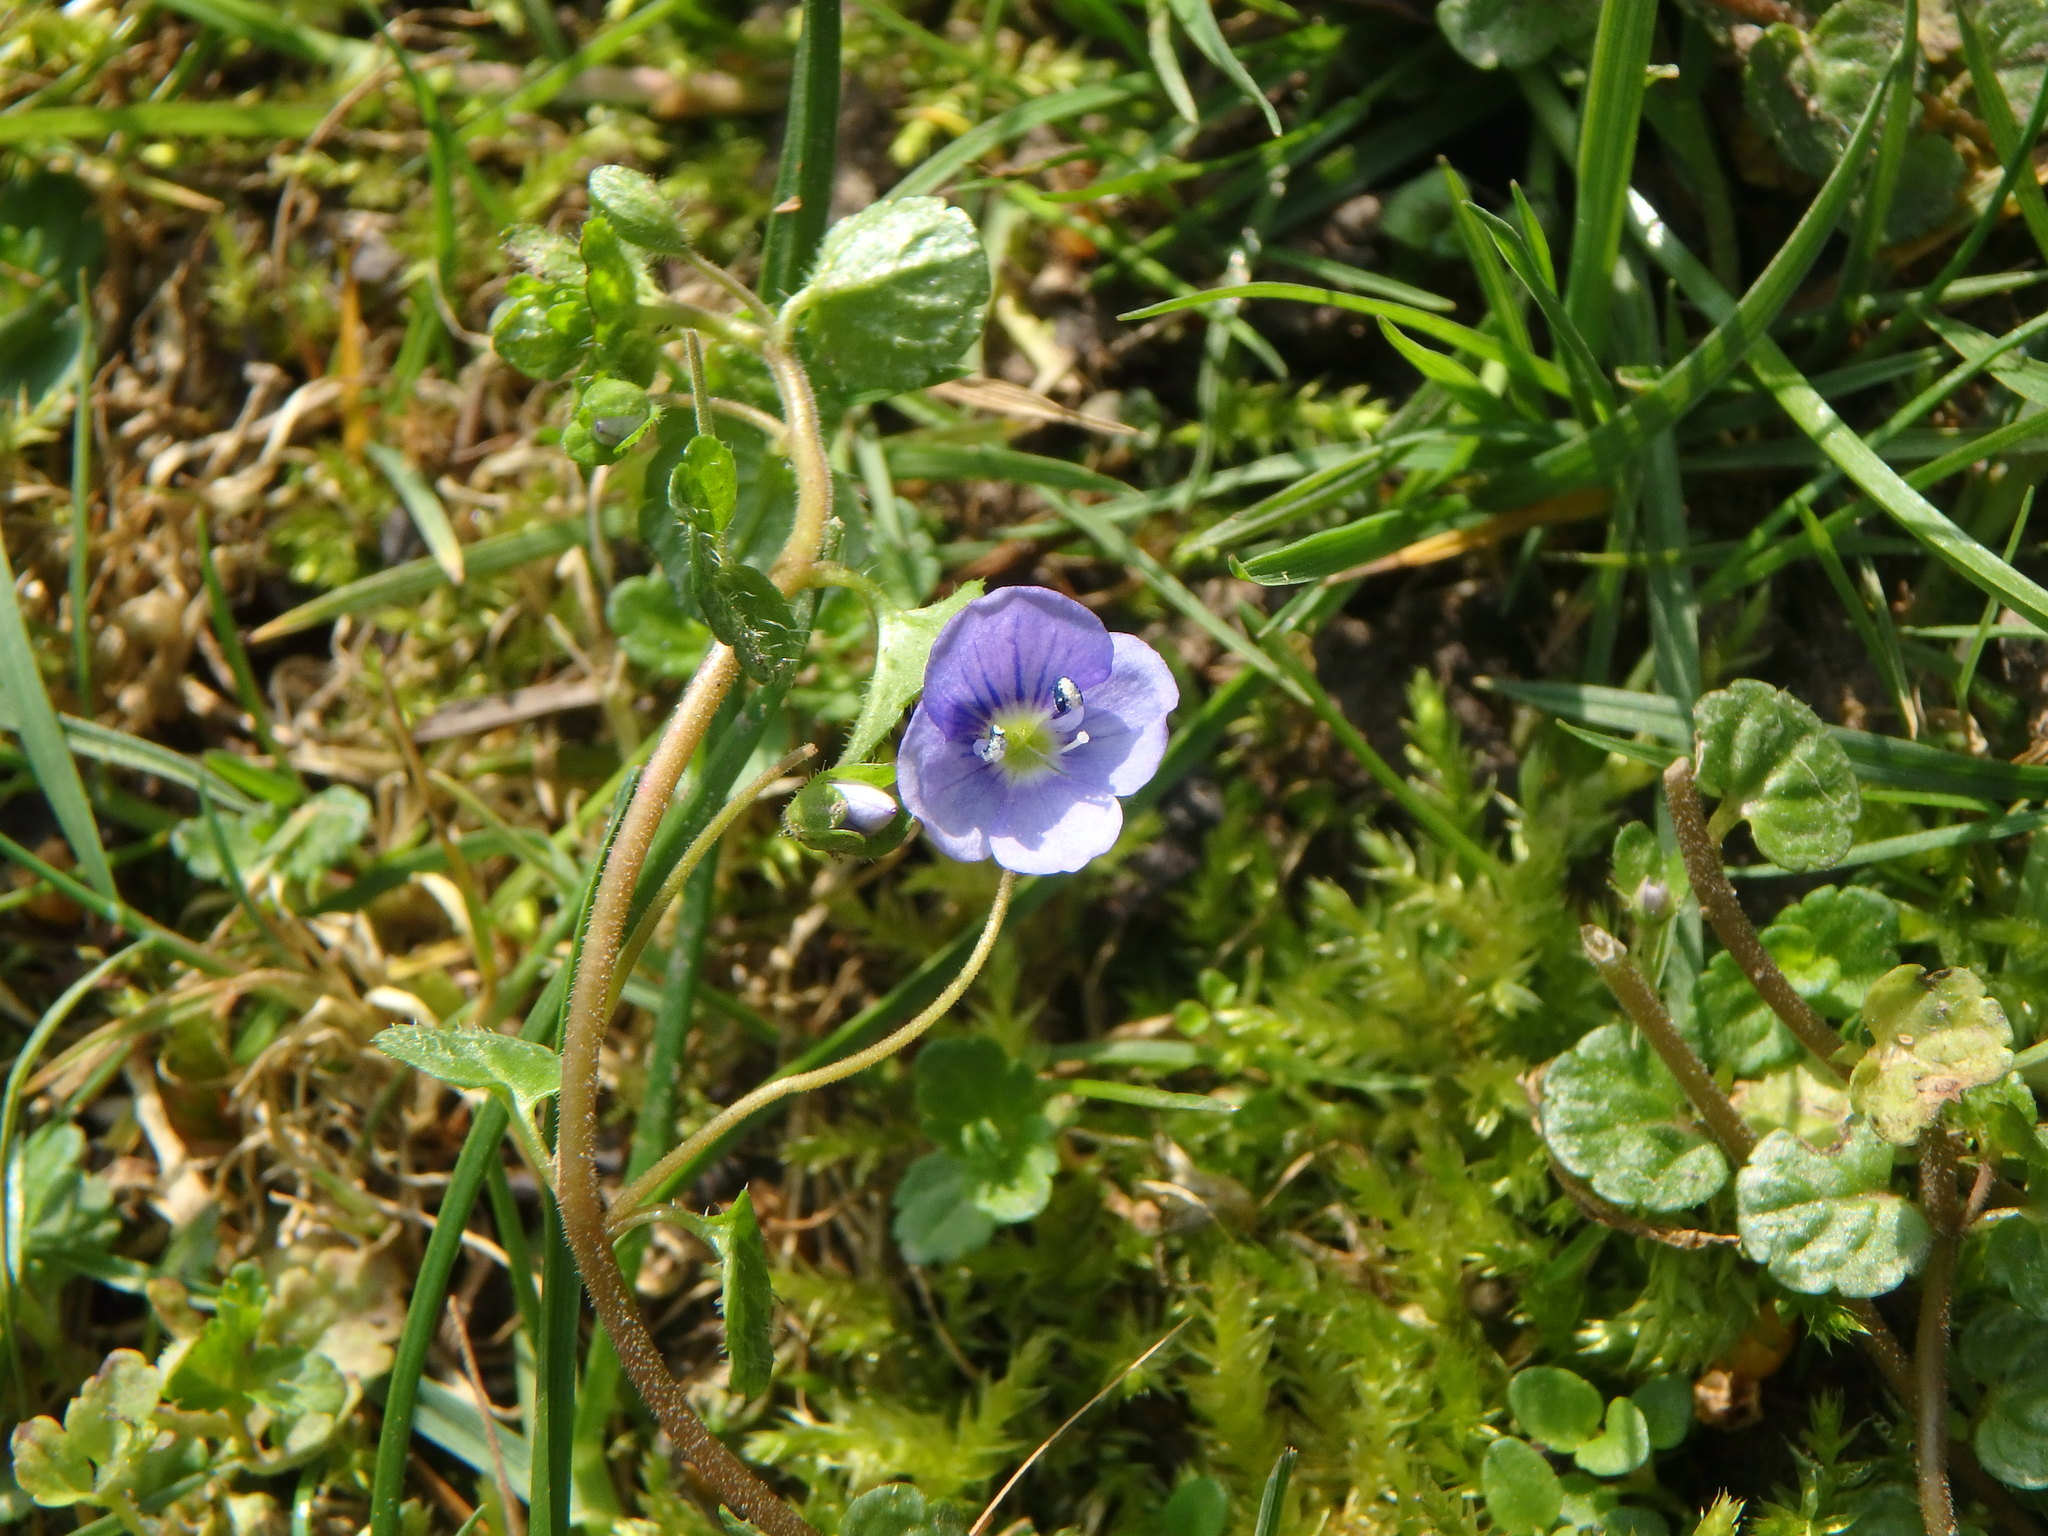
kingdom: Plantae
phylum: Tracheophyta
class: Magnoliopsida
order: Lamiales
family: Plantaginaceae
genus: Veronica
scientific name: Veronica filiformis
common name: Slender speedwell
